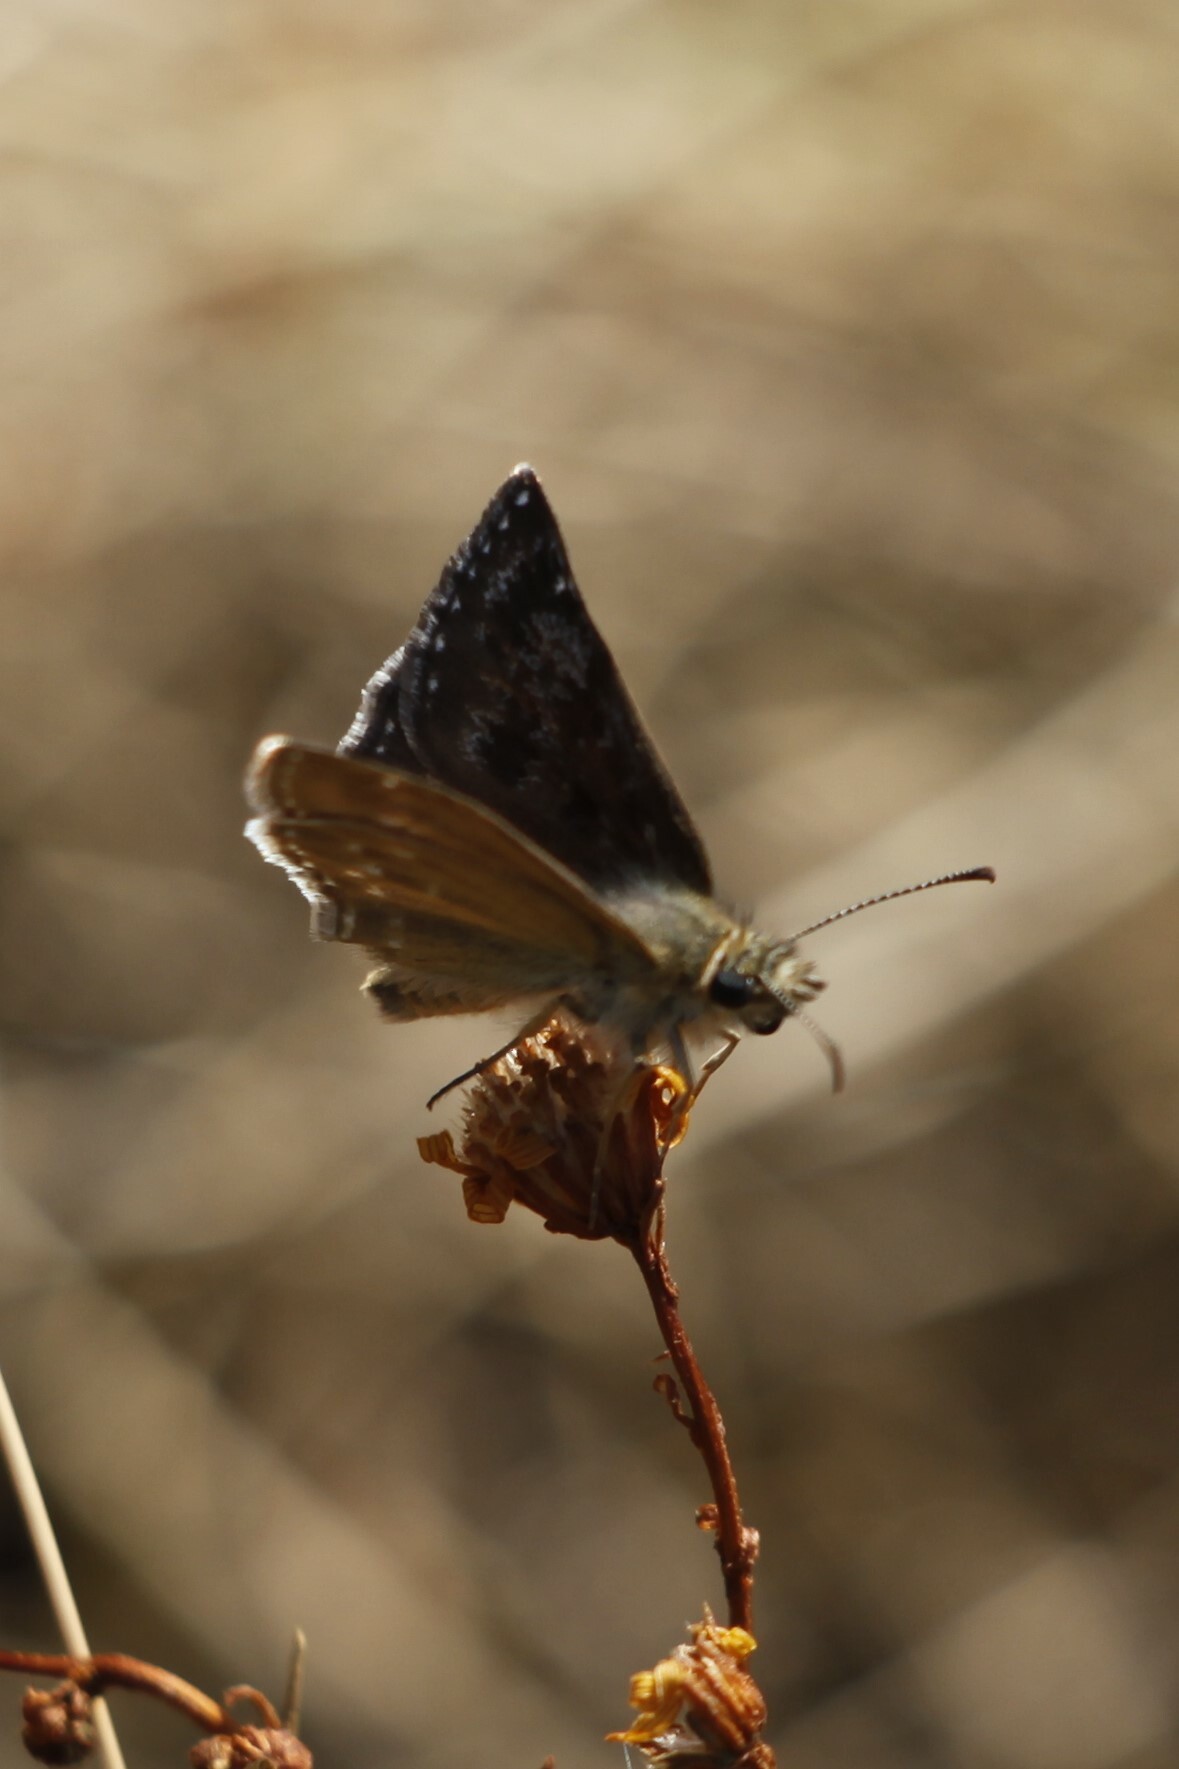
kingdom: Animalia
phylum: Arthropoda
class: Insecta
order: Lepidoptera
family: Hesperiidae
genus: Erynnis
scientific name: Erynnis tages
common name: Dingy skipper
